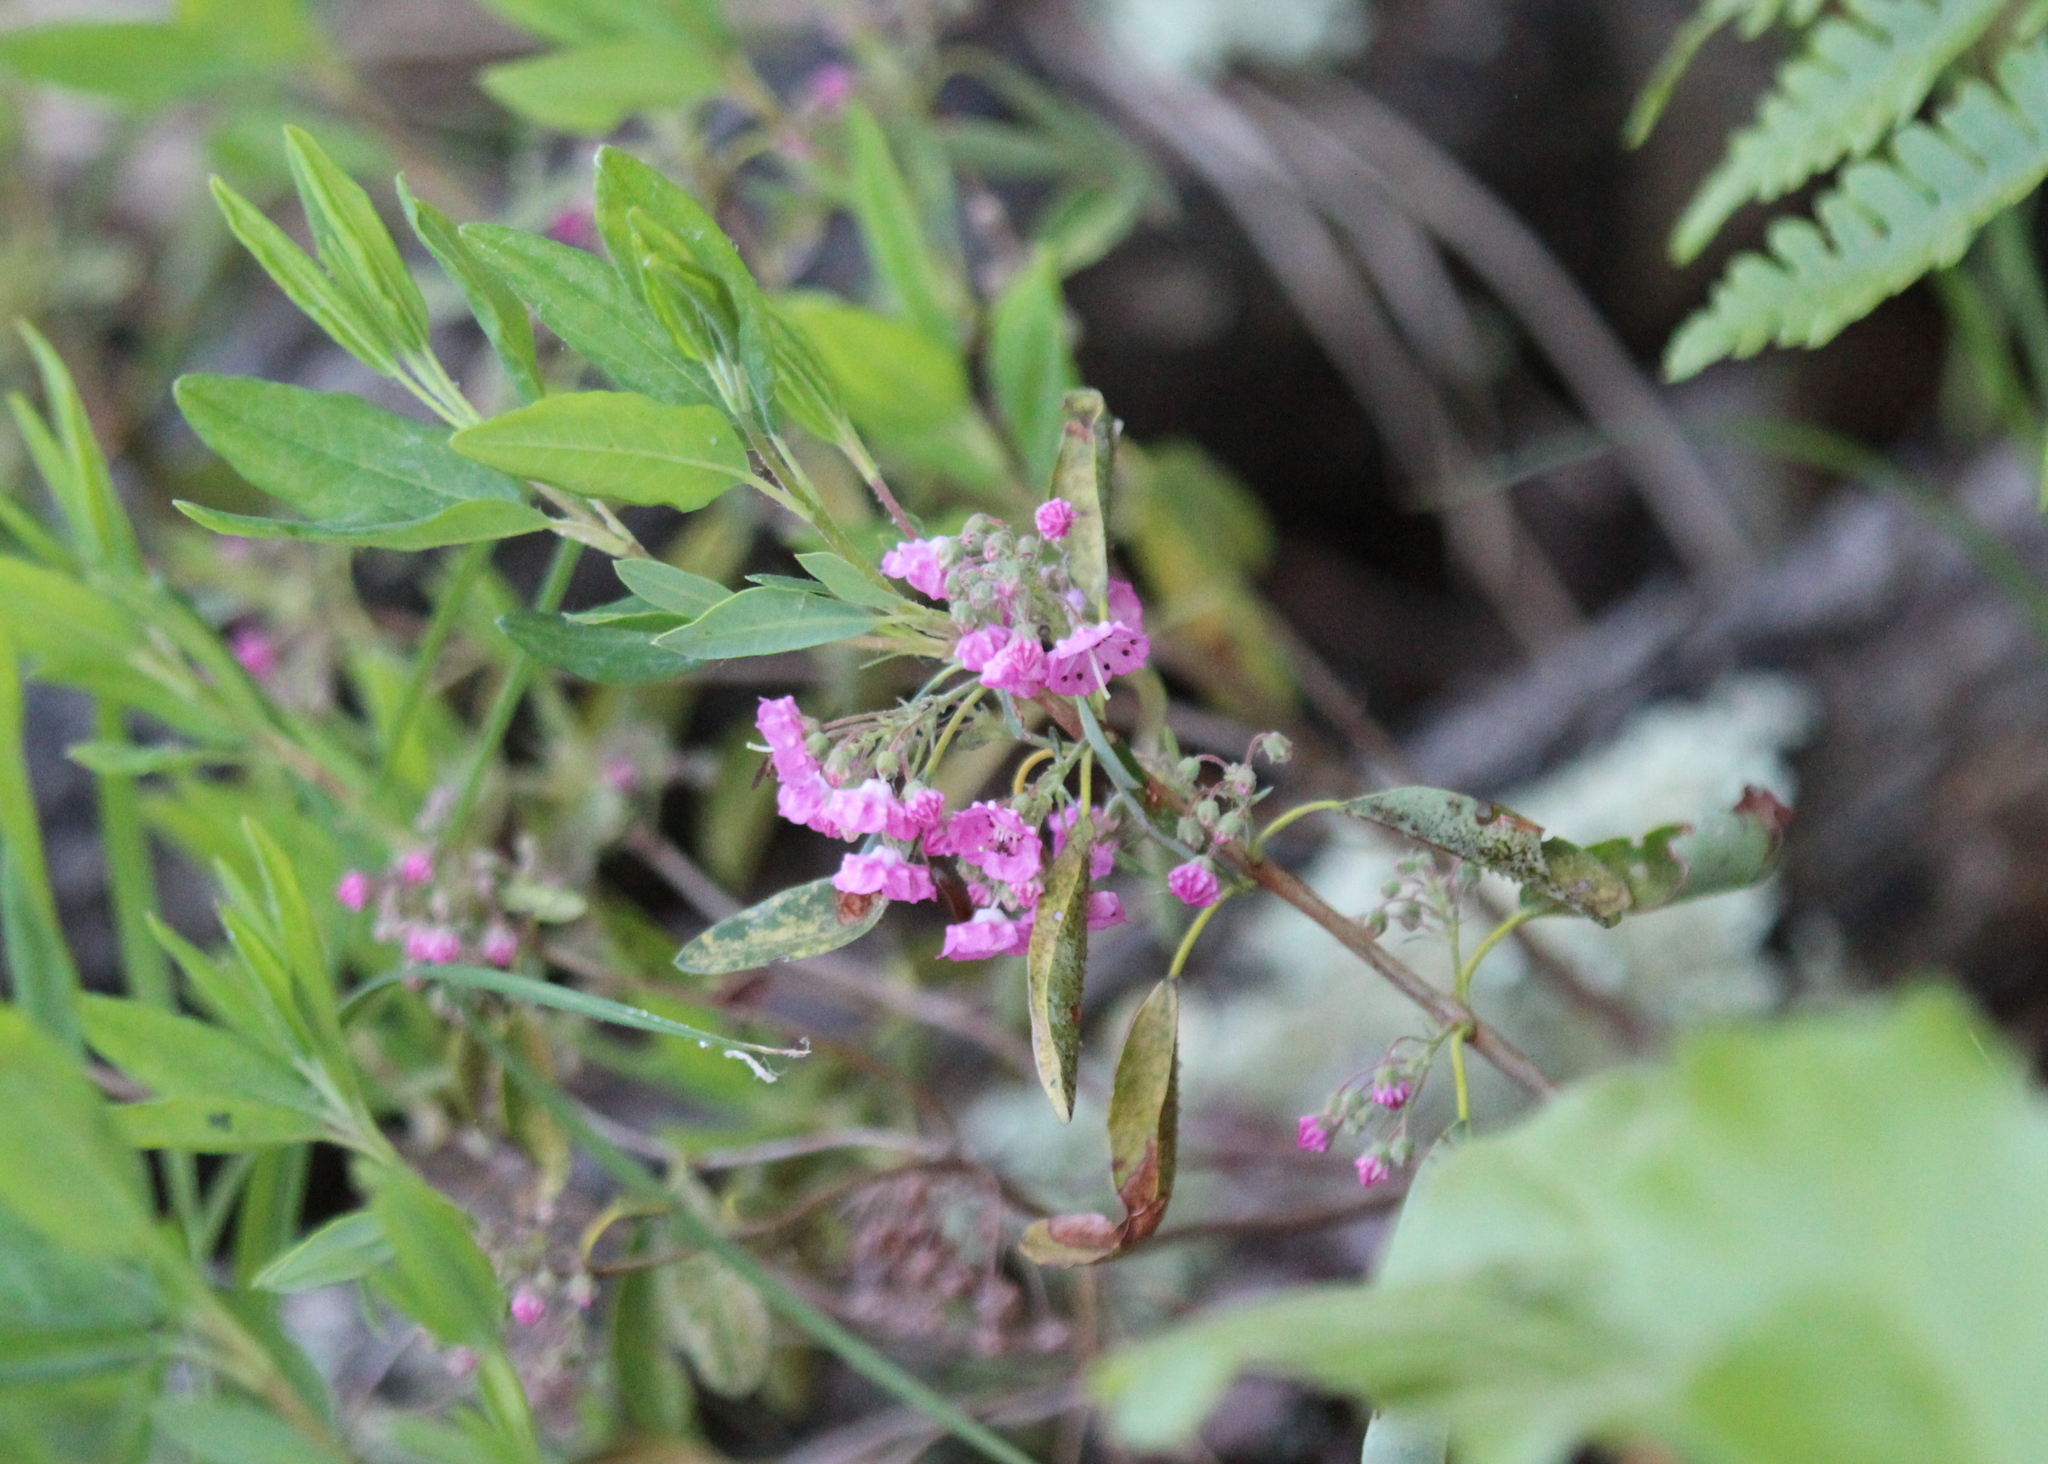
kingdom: Plantae
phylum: Tracheophyta
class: Magnoliopsida
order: Ericales
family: Ericaceae
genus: Kalmia
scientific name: Kalmia angustifolia
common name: Sheep-laurel
